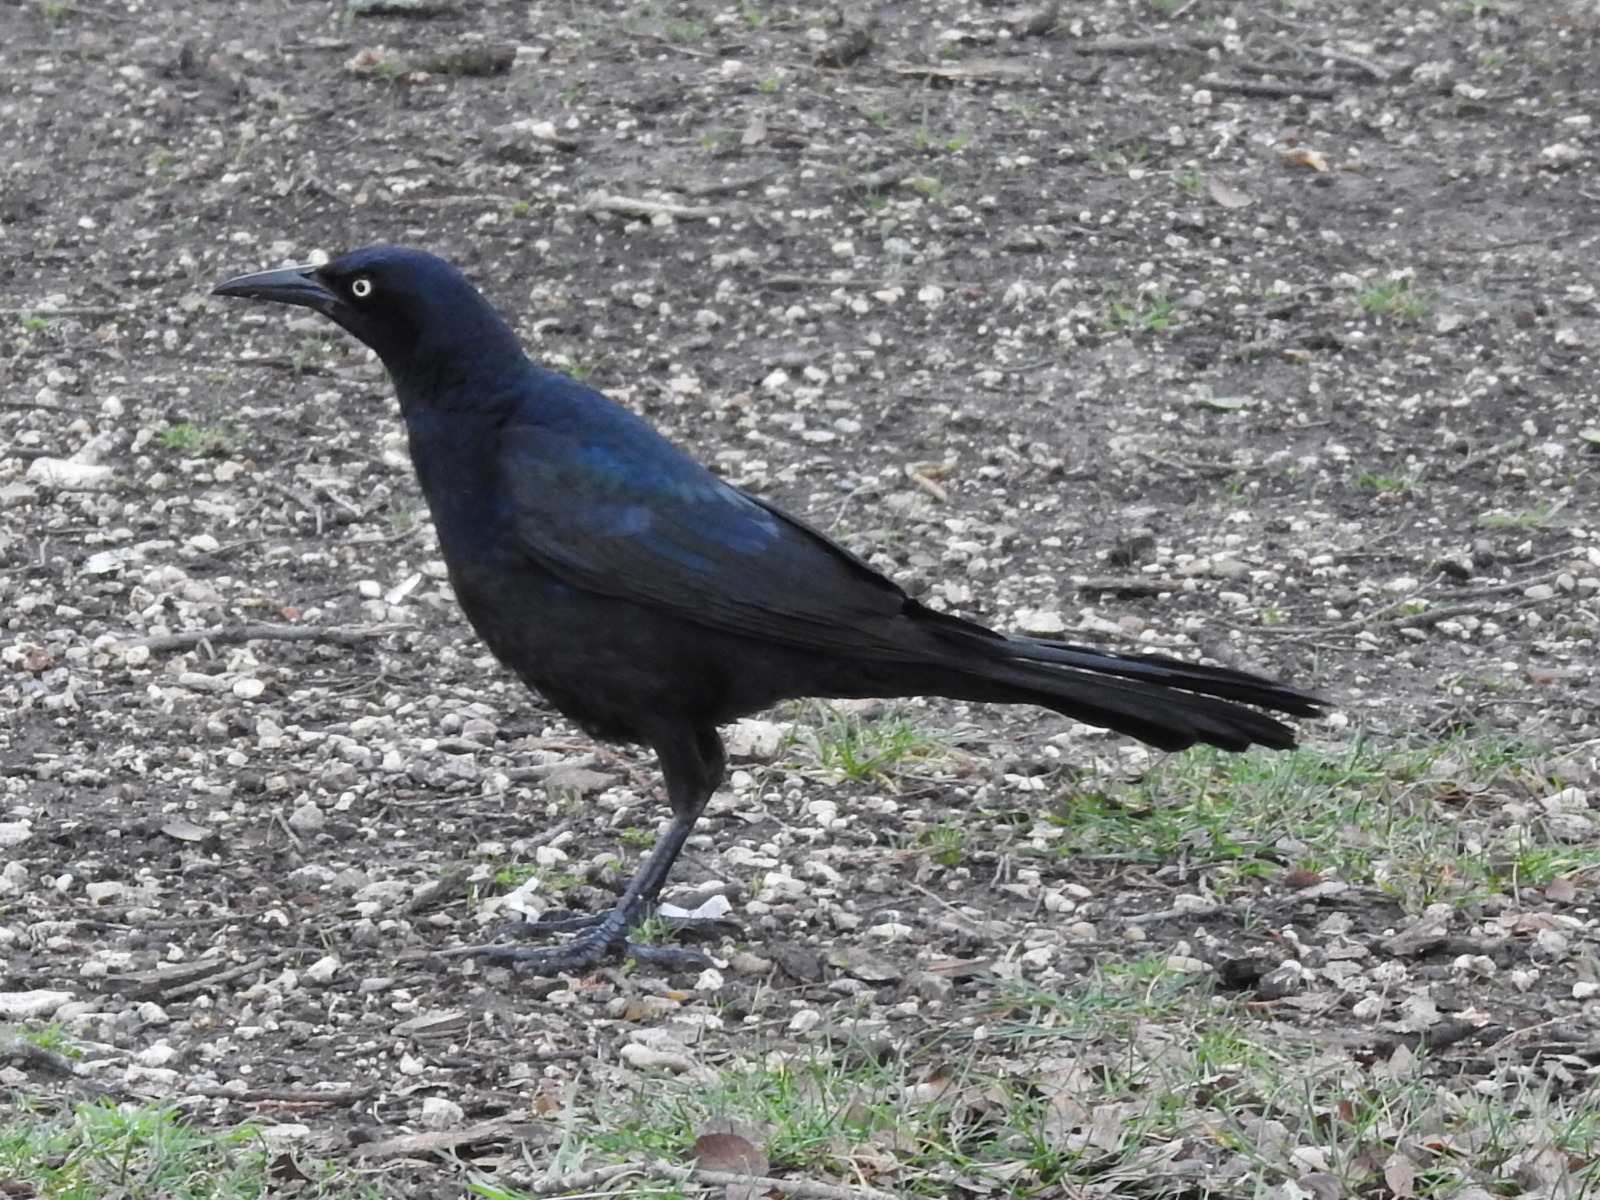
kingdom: Animalia
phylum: Chordata
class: Aves
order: Passeriformes
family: Icteridae
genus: Quiscalus
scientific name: Quiscalus mexicanus
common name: Great-tailed grackle
